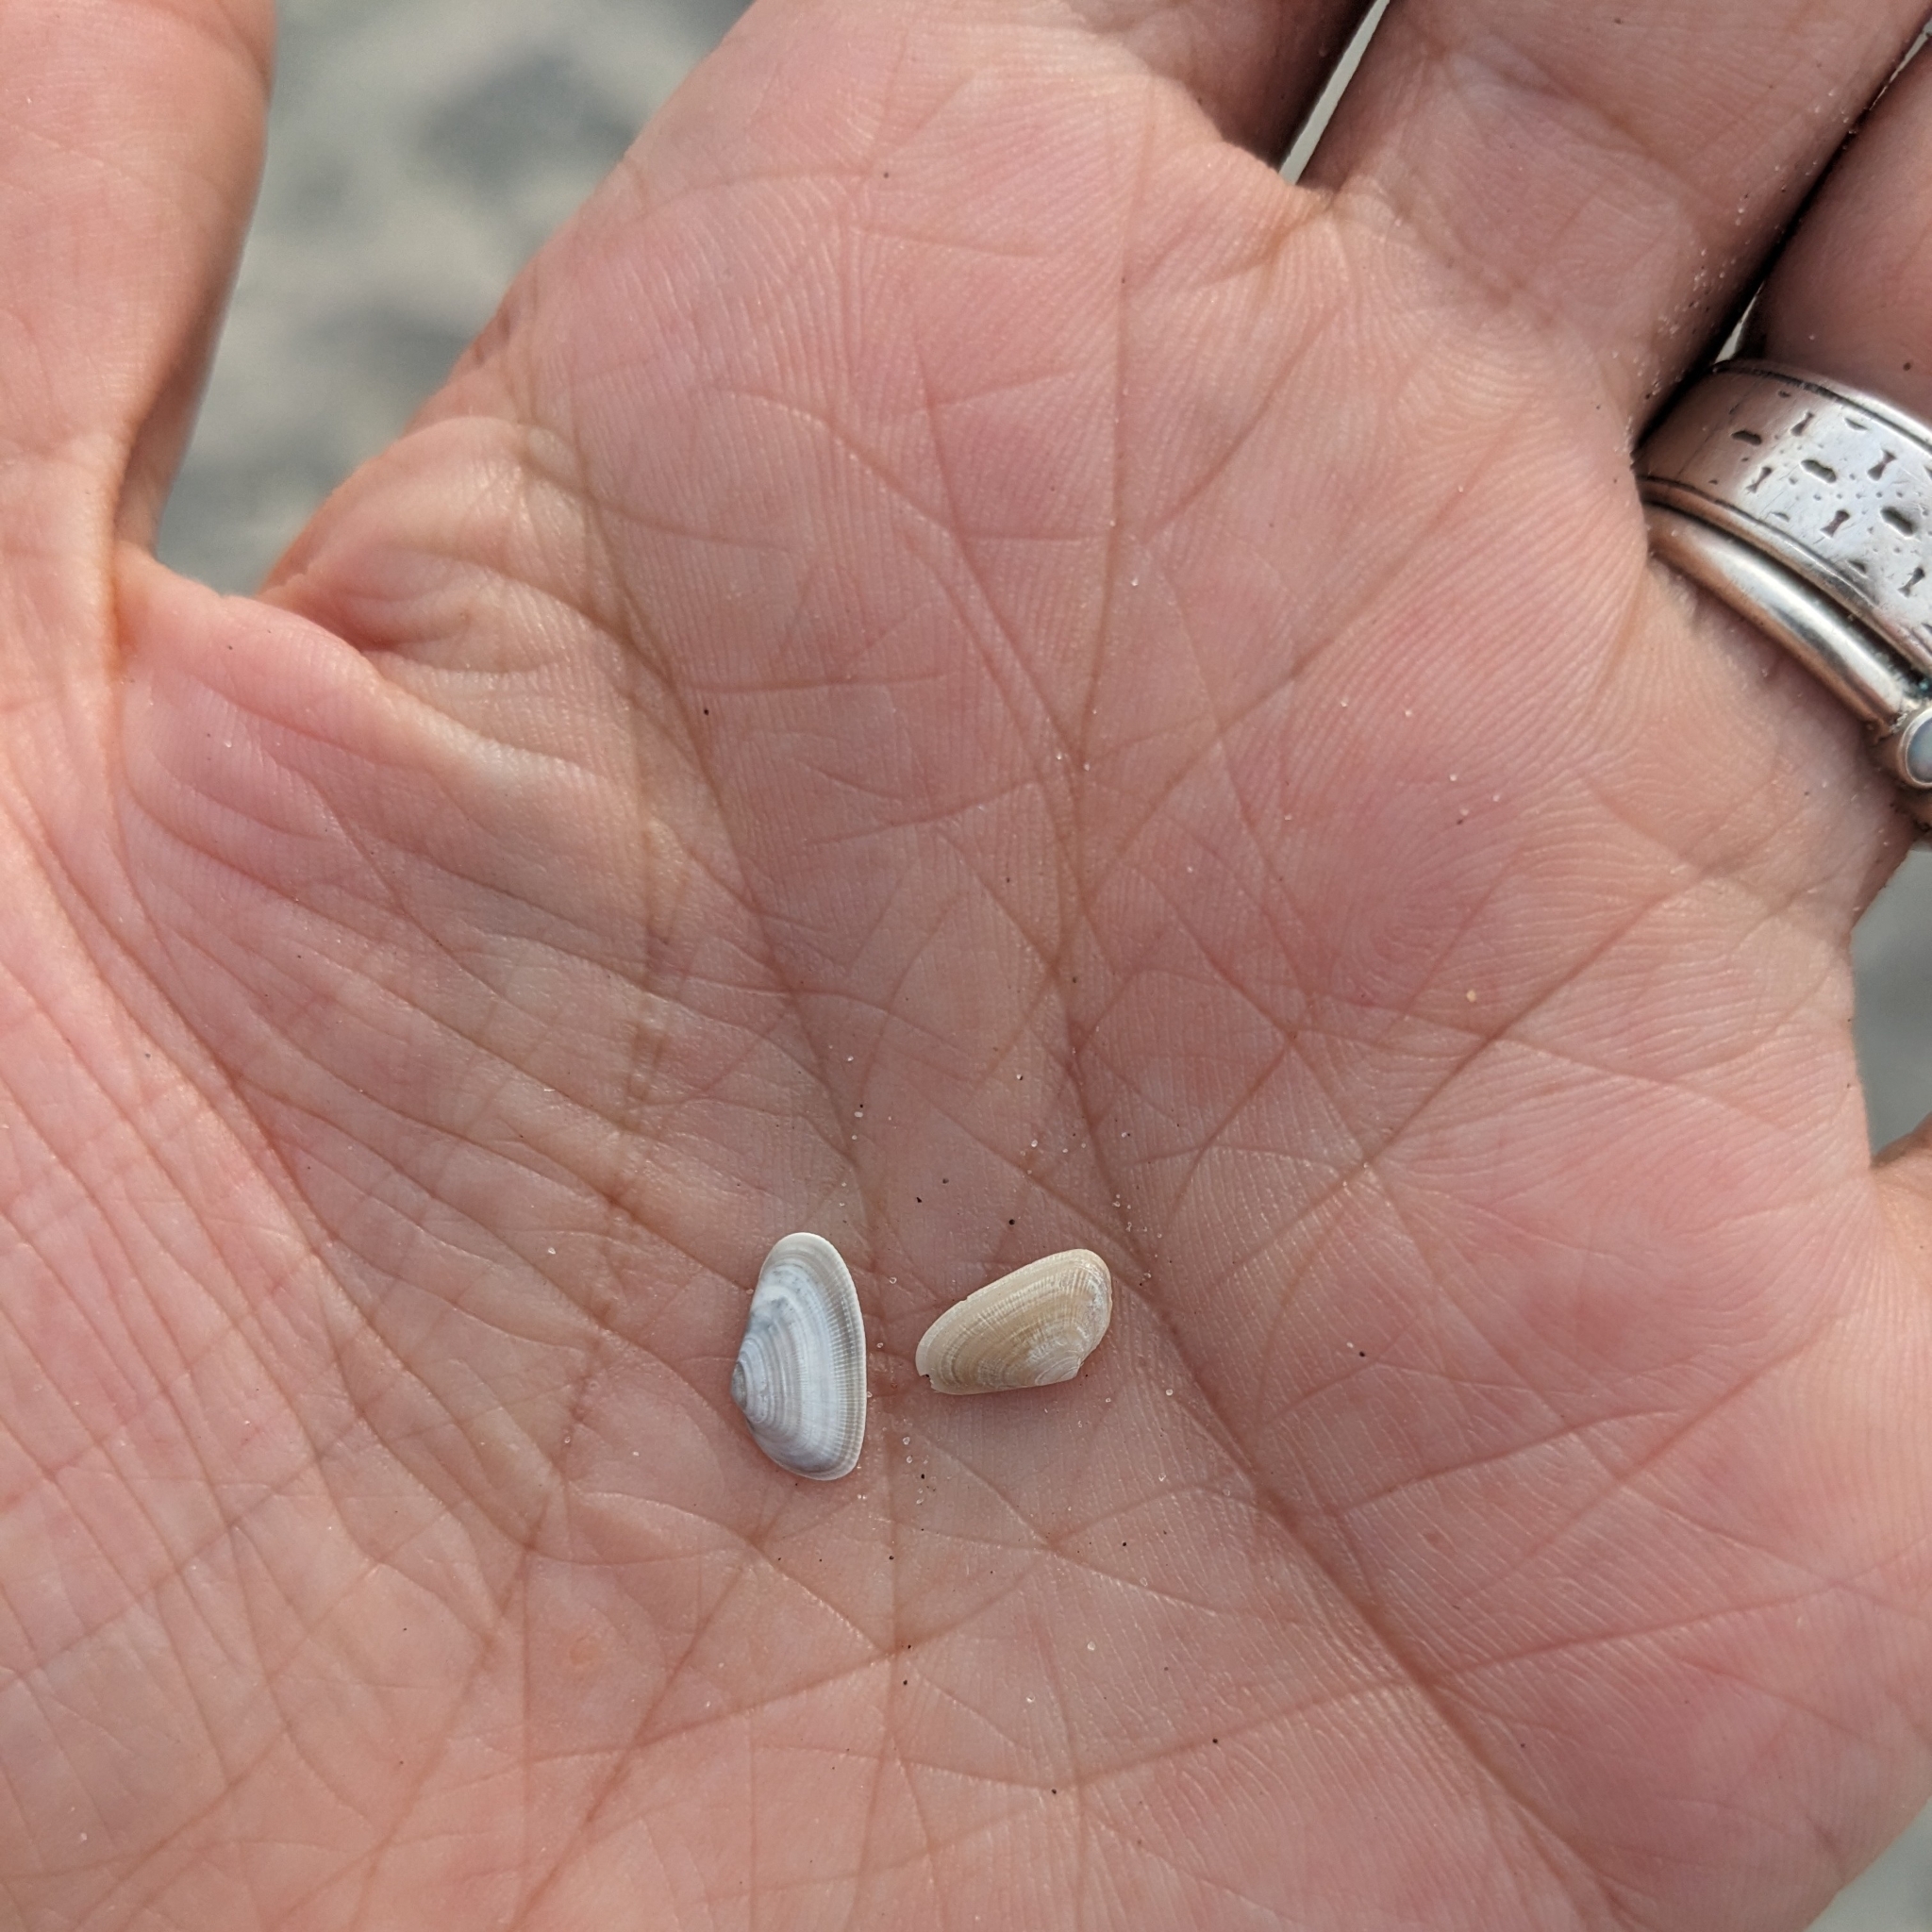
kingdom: Animalia
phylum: Mollusca
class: Bivalvia
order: Cardiida
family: Donacidae
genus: Donax
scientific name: Donax fossor
